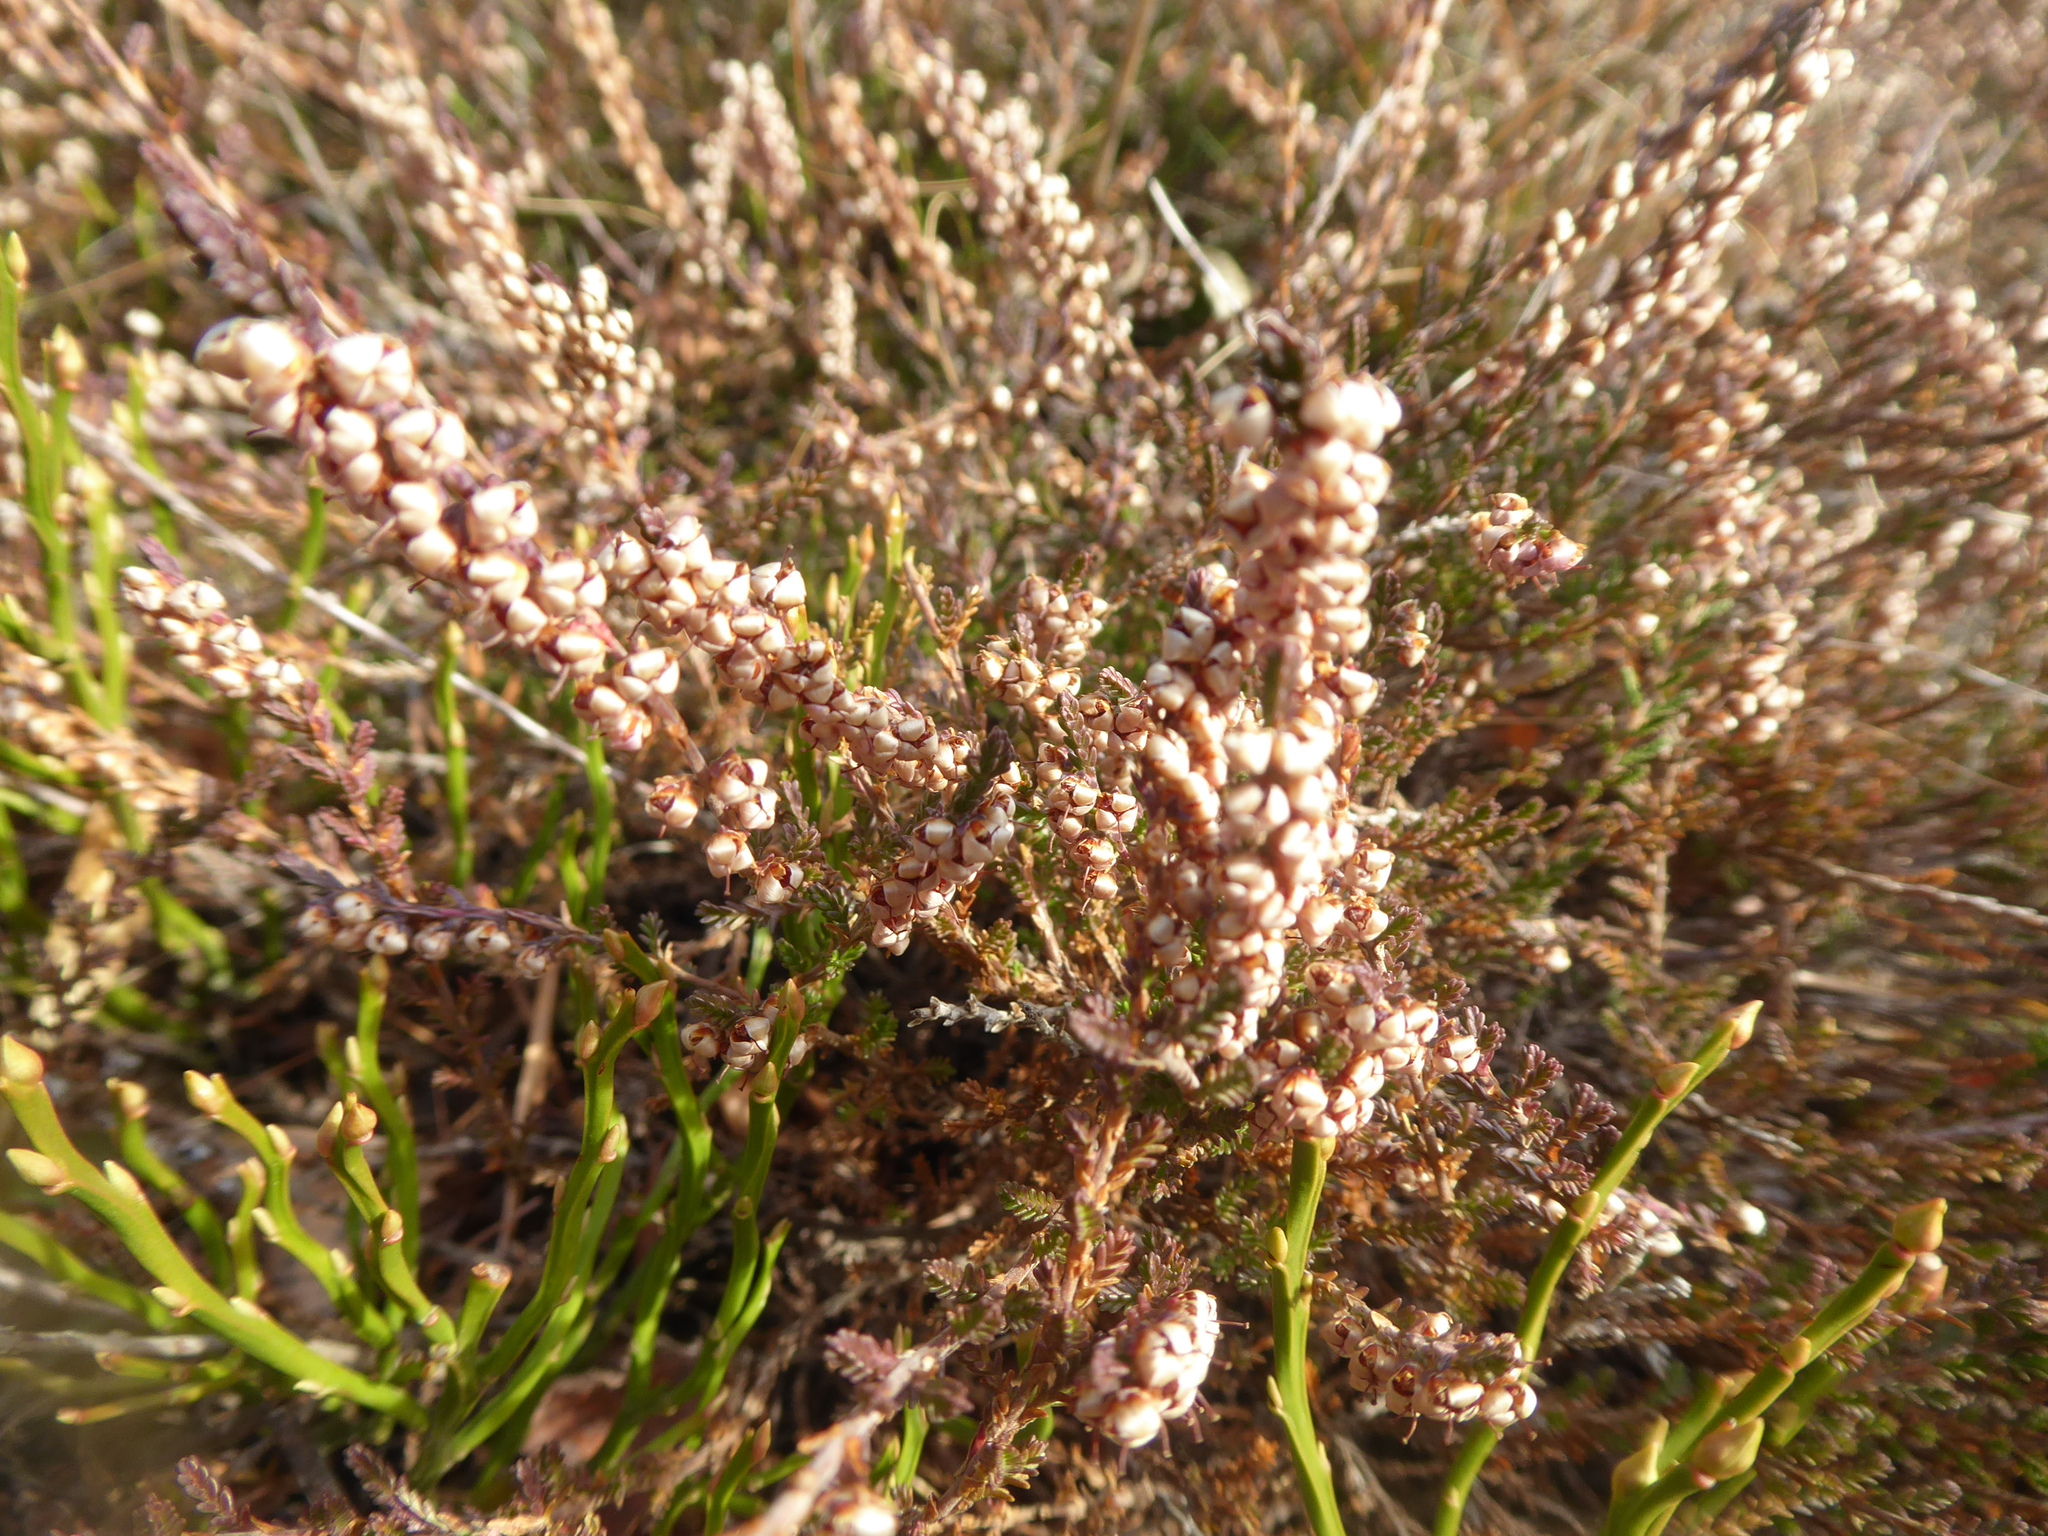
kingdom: Plantae
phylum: Tracheophyta
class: Magnoliopsida
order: Ericales
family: Ericaceae
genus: Calluna
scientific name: Calluna vulgaris
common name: Heather
